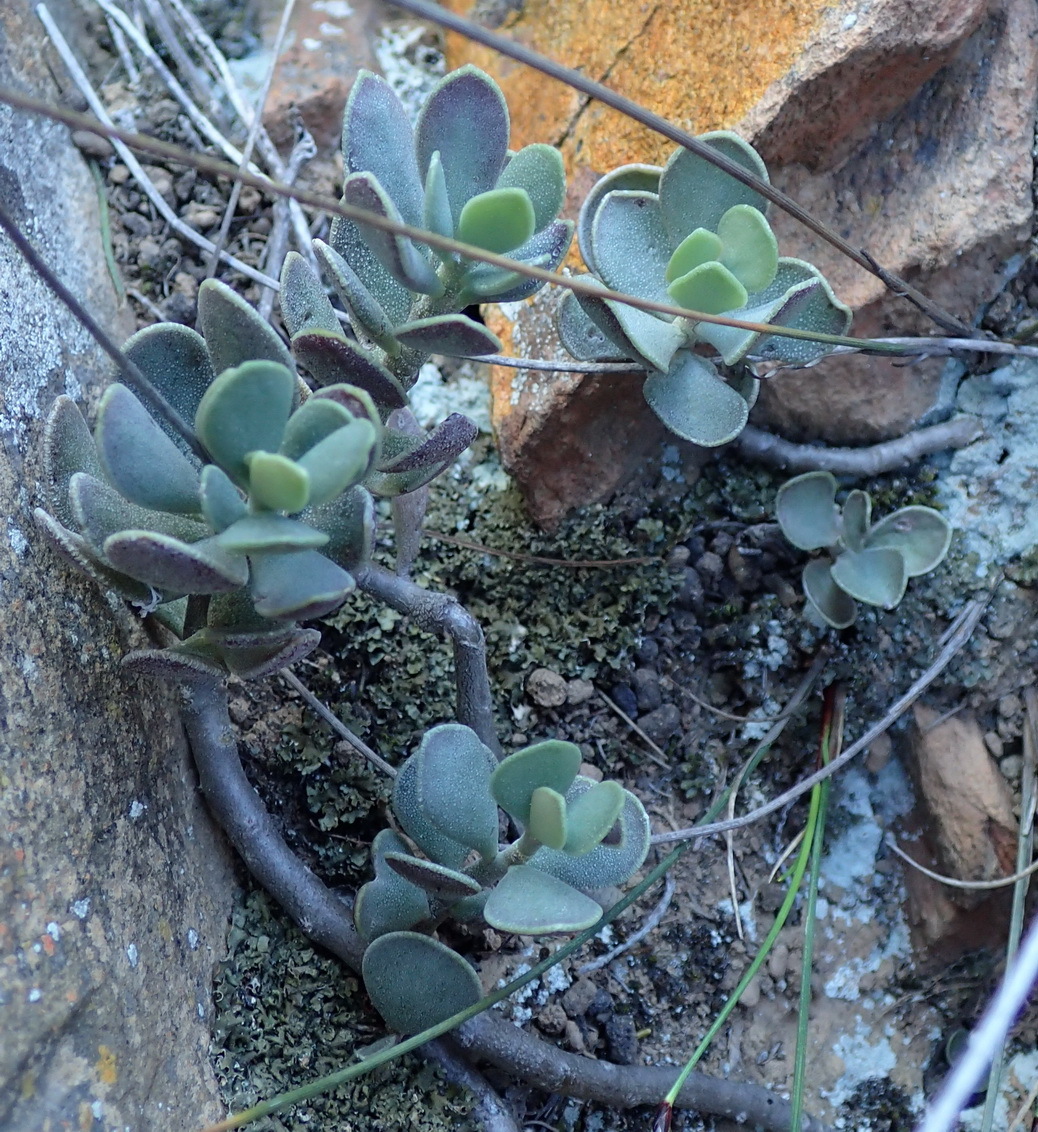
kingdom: Plantae
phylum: Tracheophyta
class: Magnoliopsida
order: Saxifragales
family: Crassulaceae
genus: Adromischus
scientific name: Adromischus caryophyllaceus
